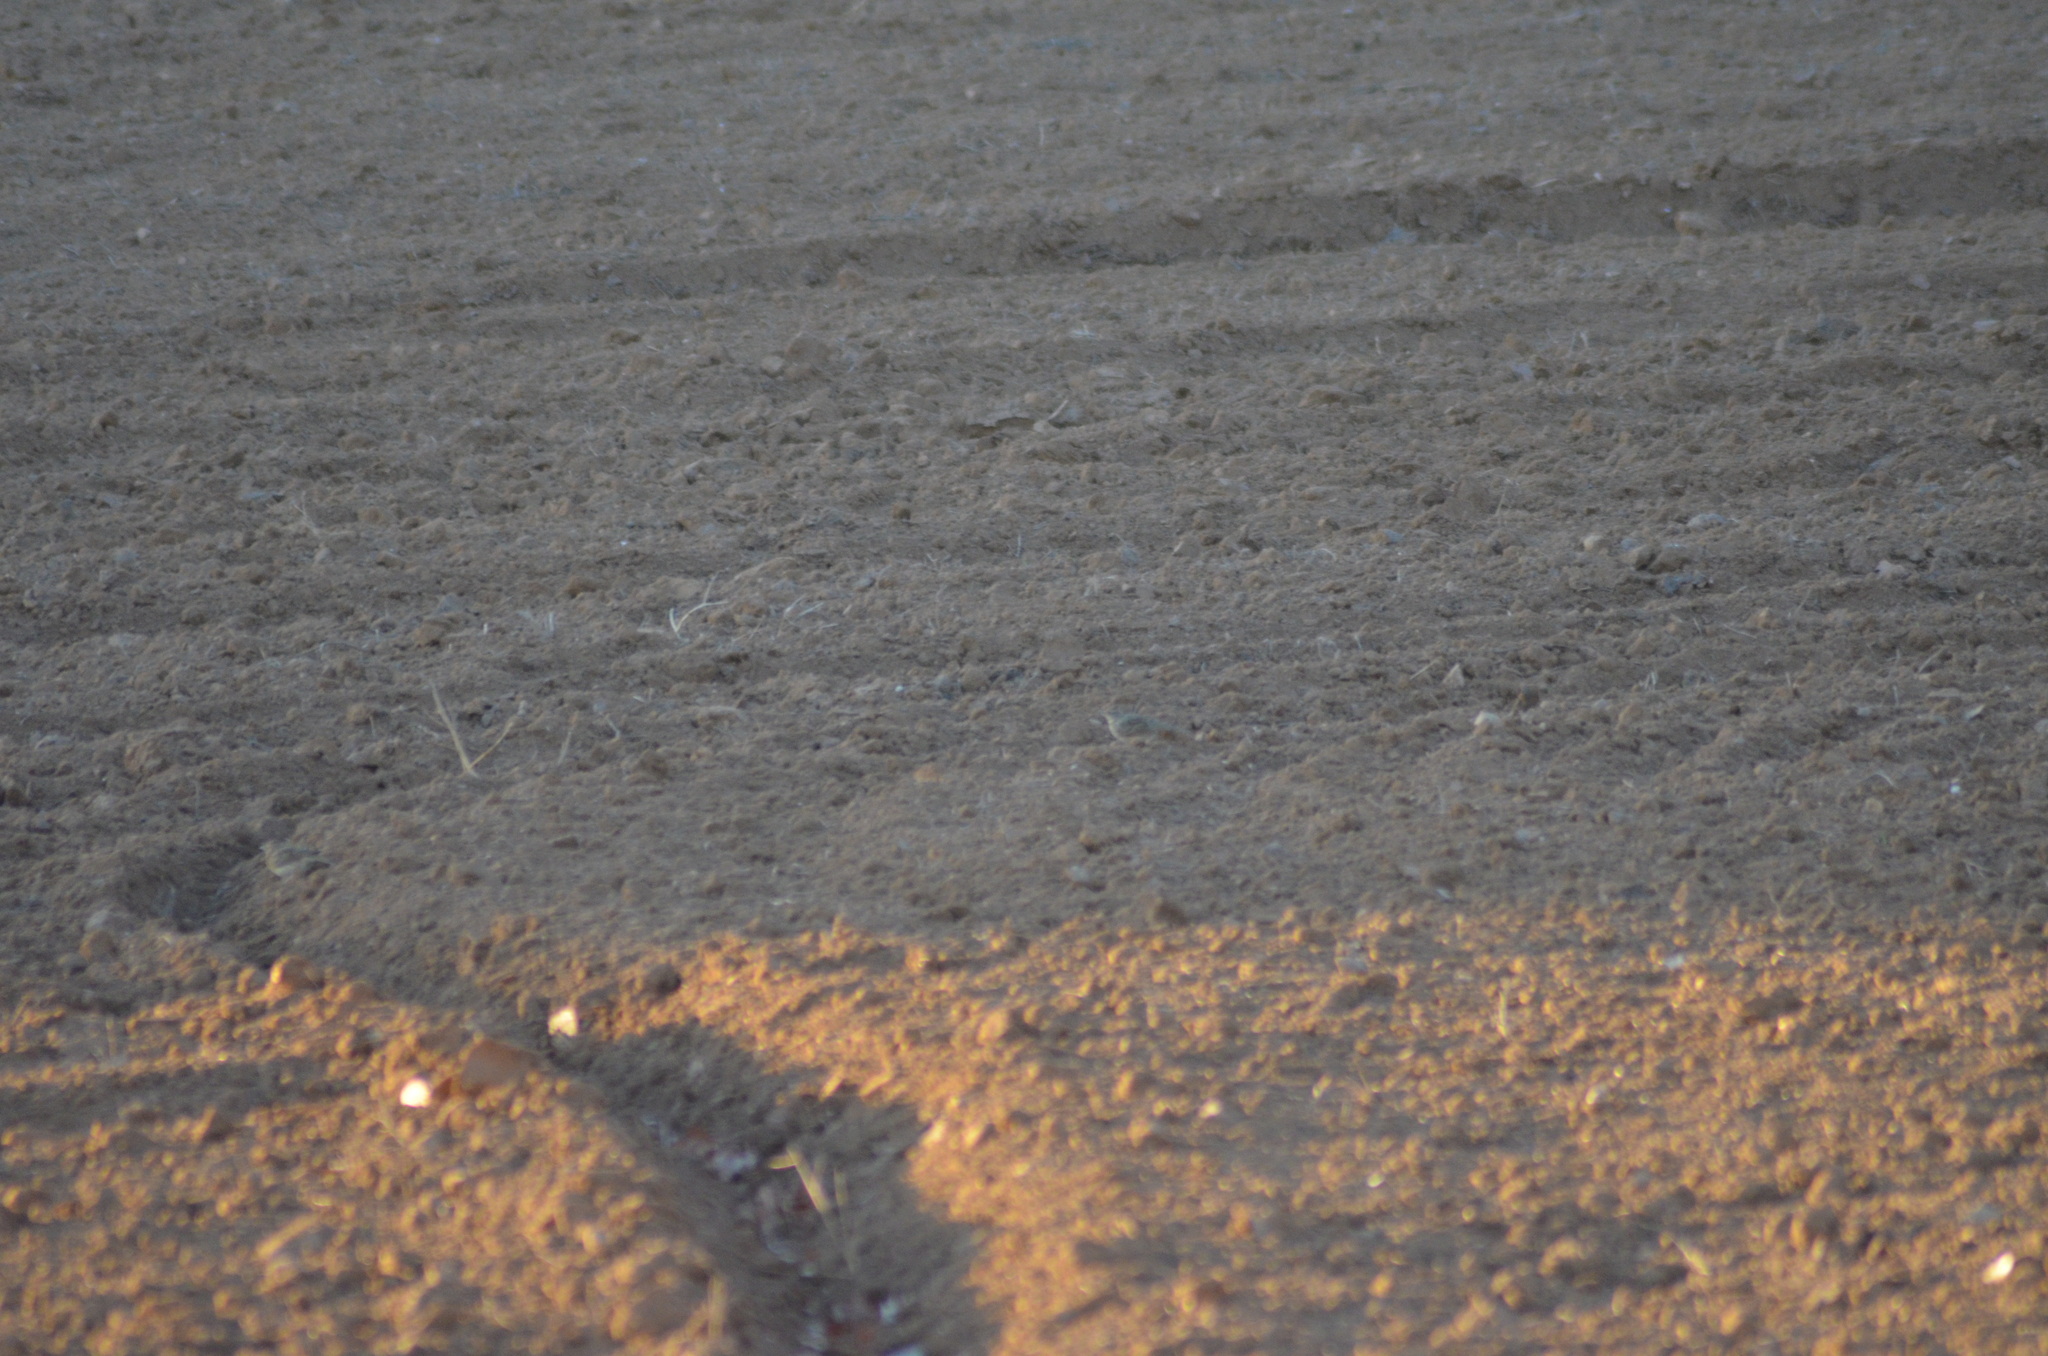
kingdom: Animalia
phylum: Chordata
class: Aves
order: Passeriformes
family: Alaudidae
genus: Galerida
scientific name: Galerida cristata
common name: Crested lark
